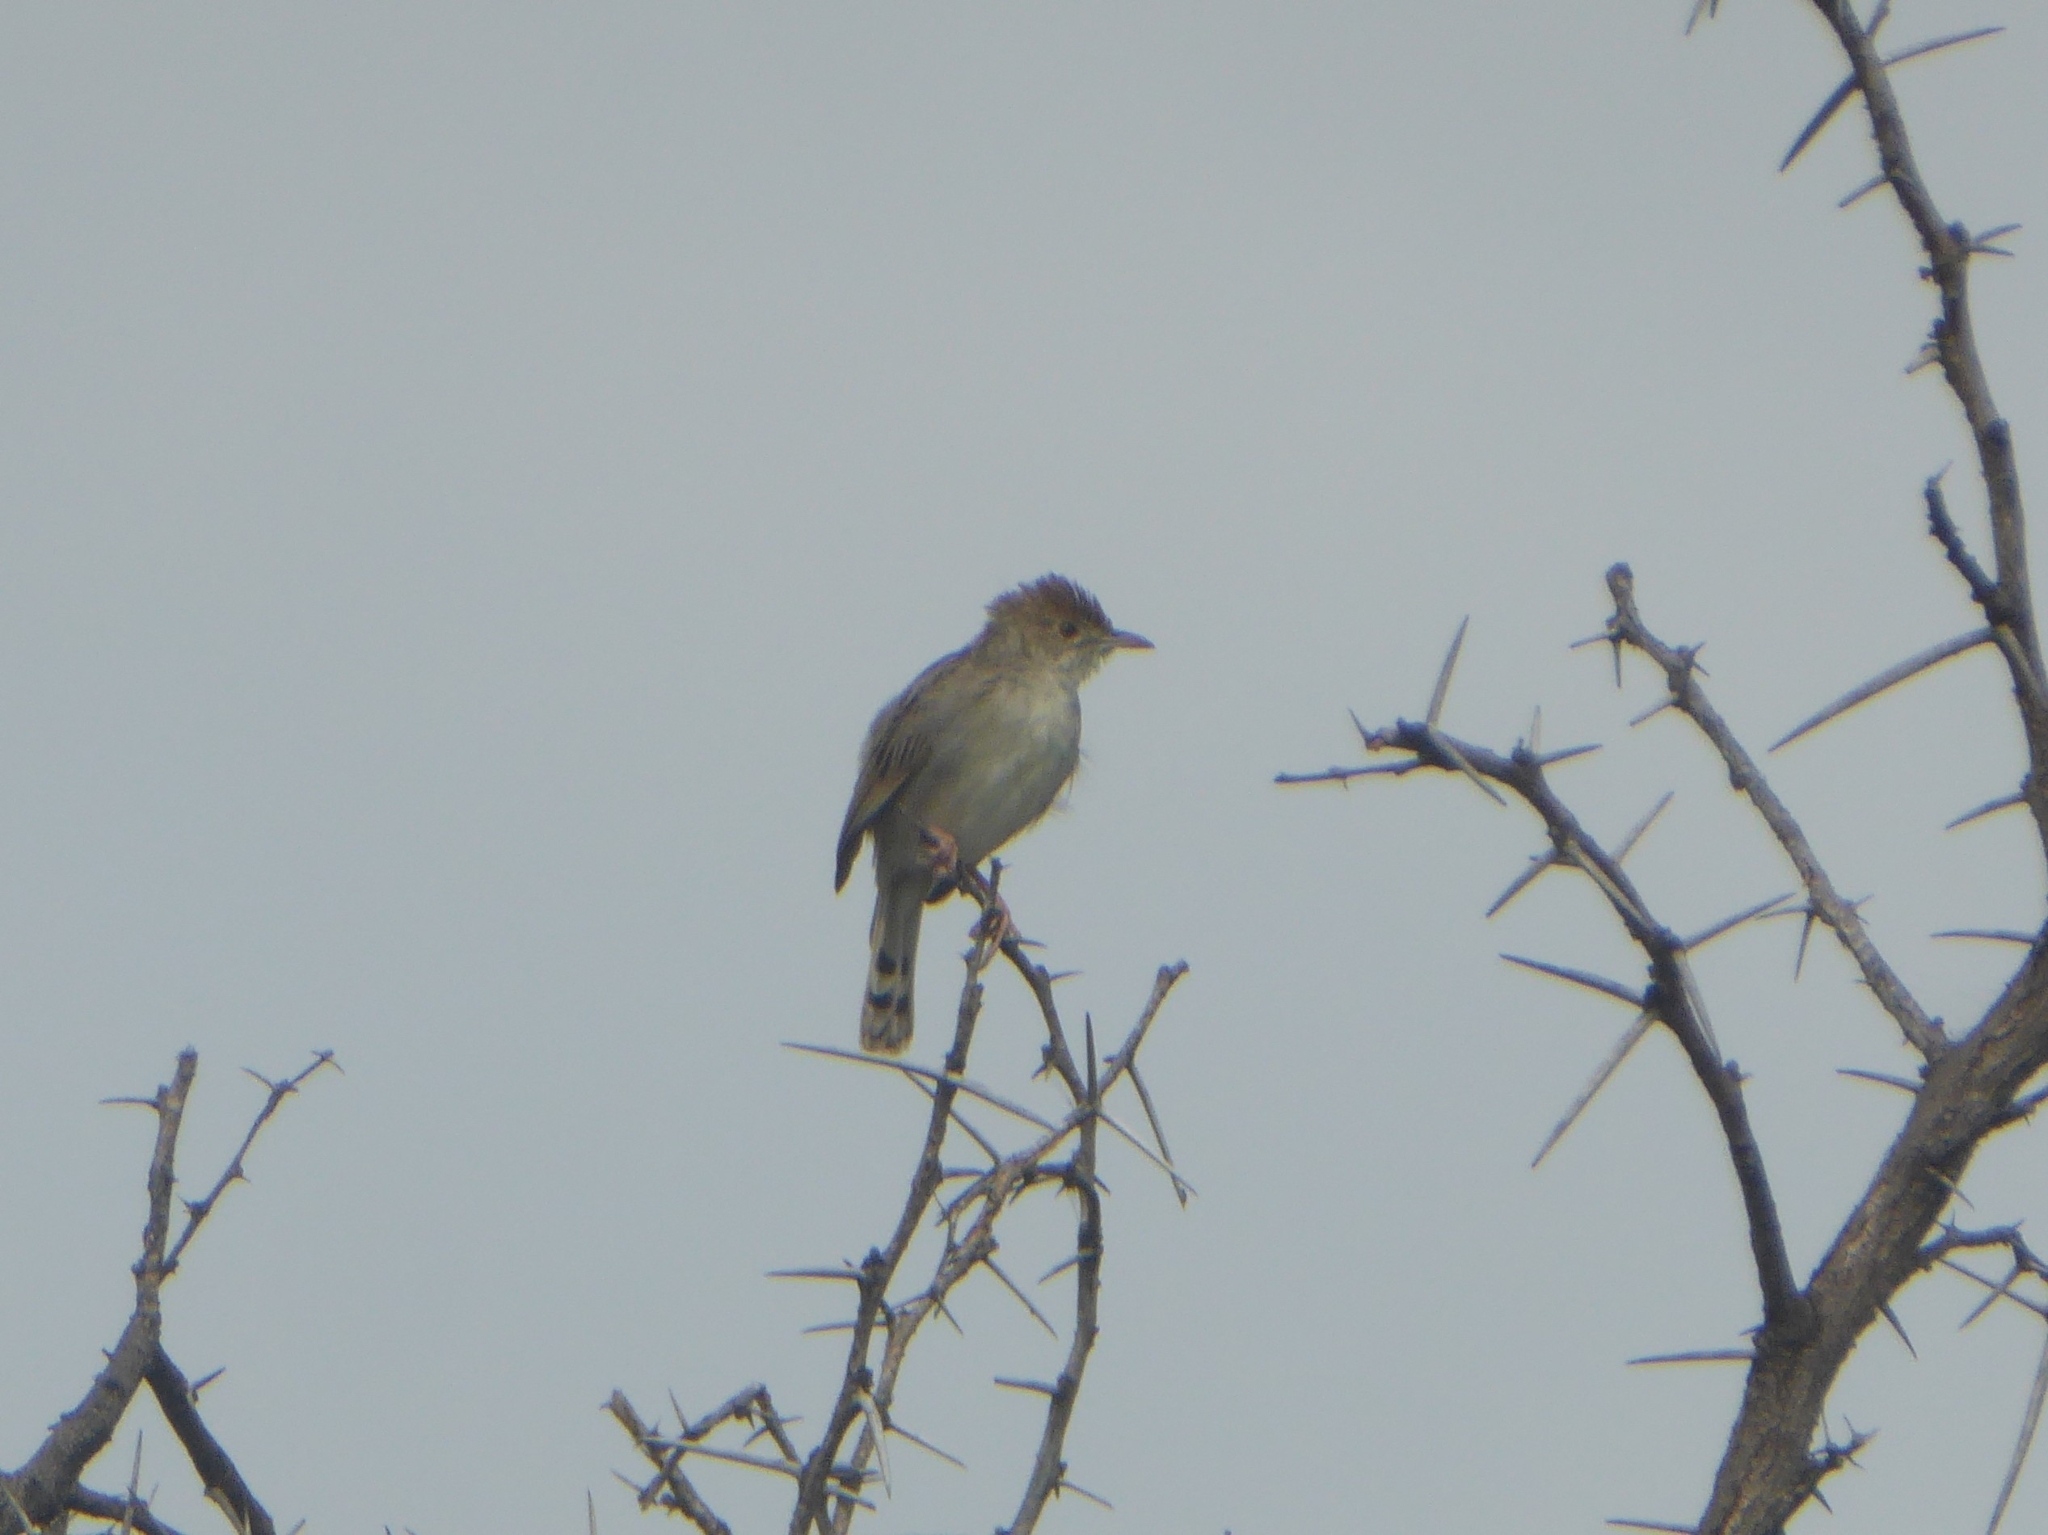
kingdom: Animalia
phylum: Chordata
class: Aves
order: Passeriformes
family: Cisticolidae
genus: Cisticola
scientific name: Cisticola chiniana
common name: Rattling cisticola
